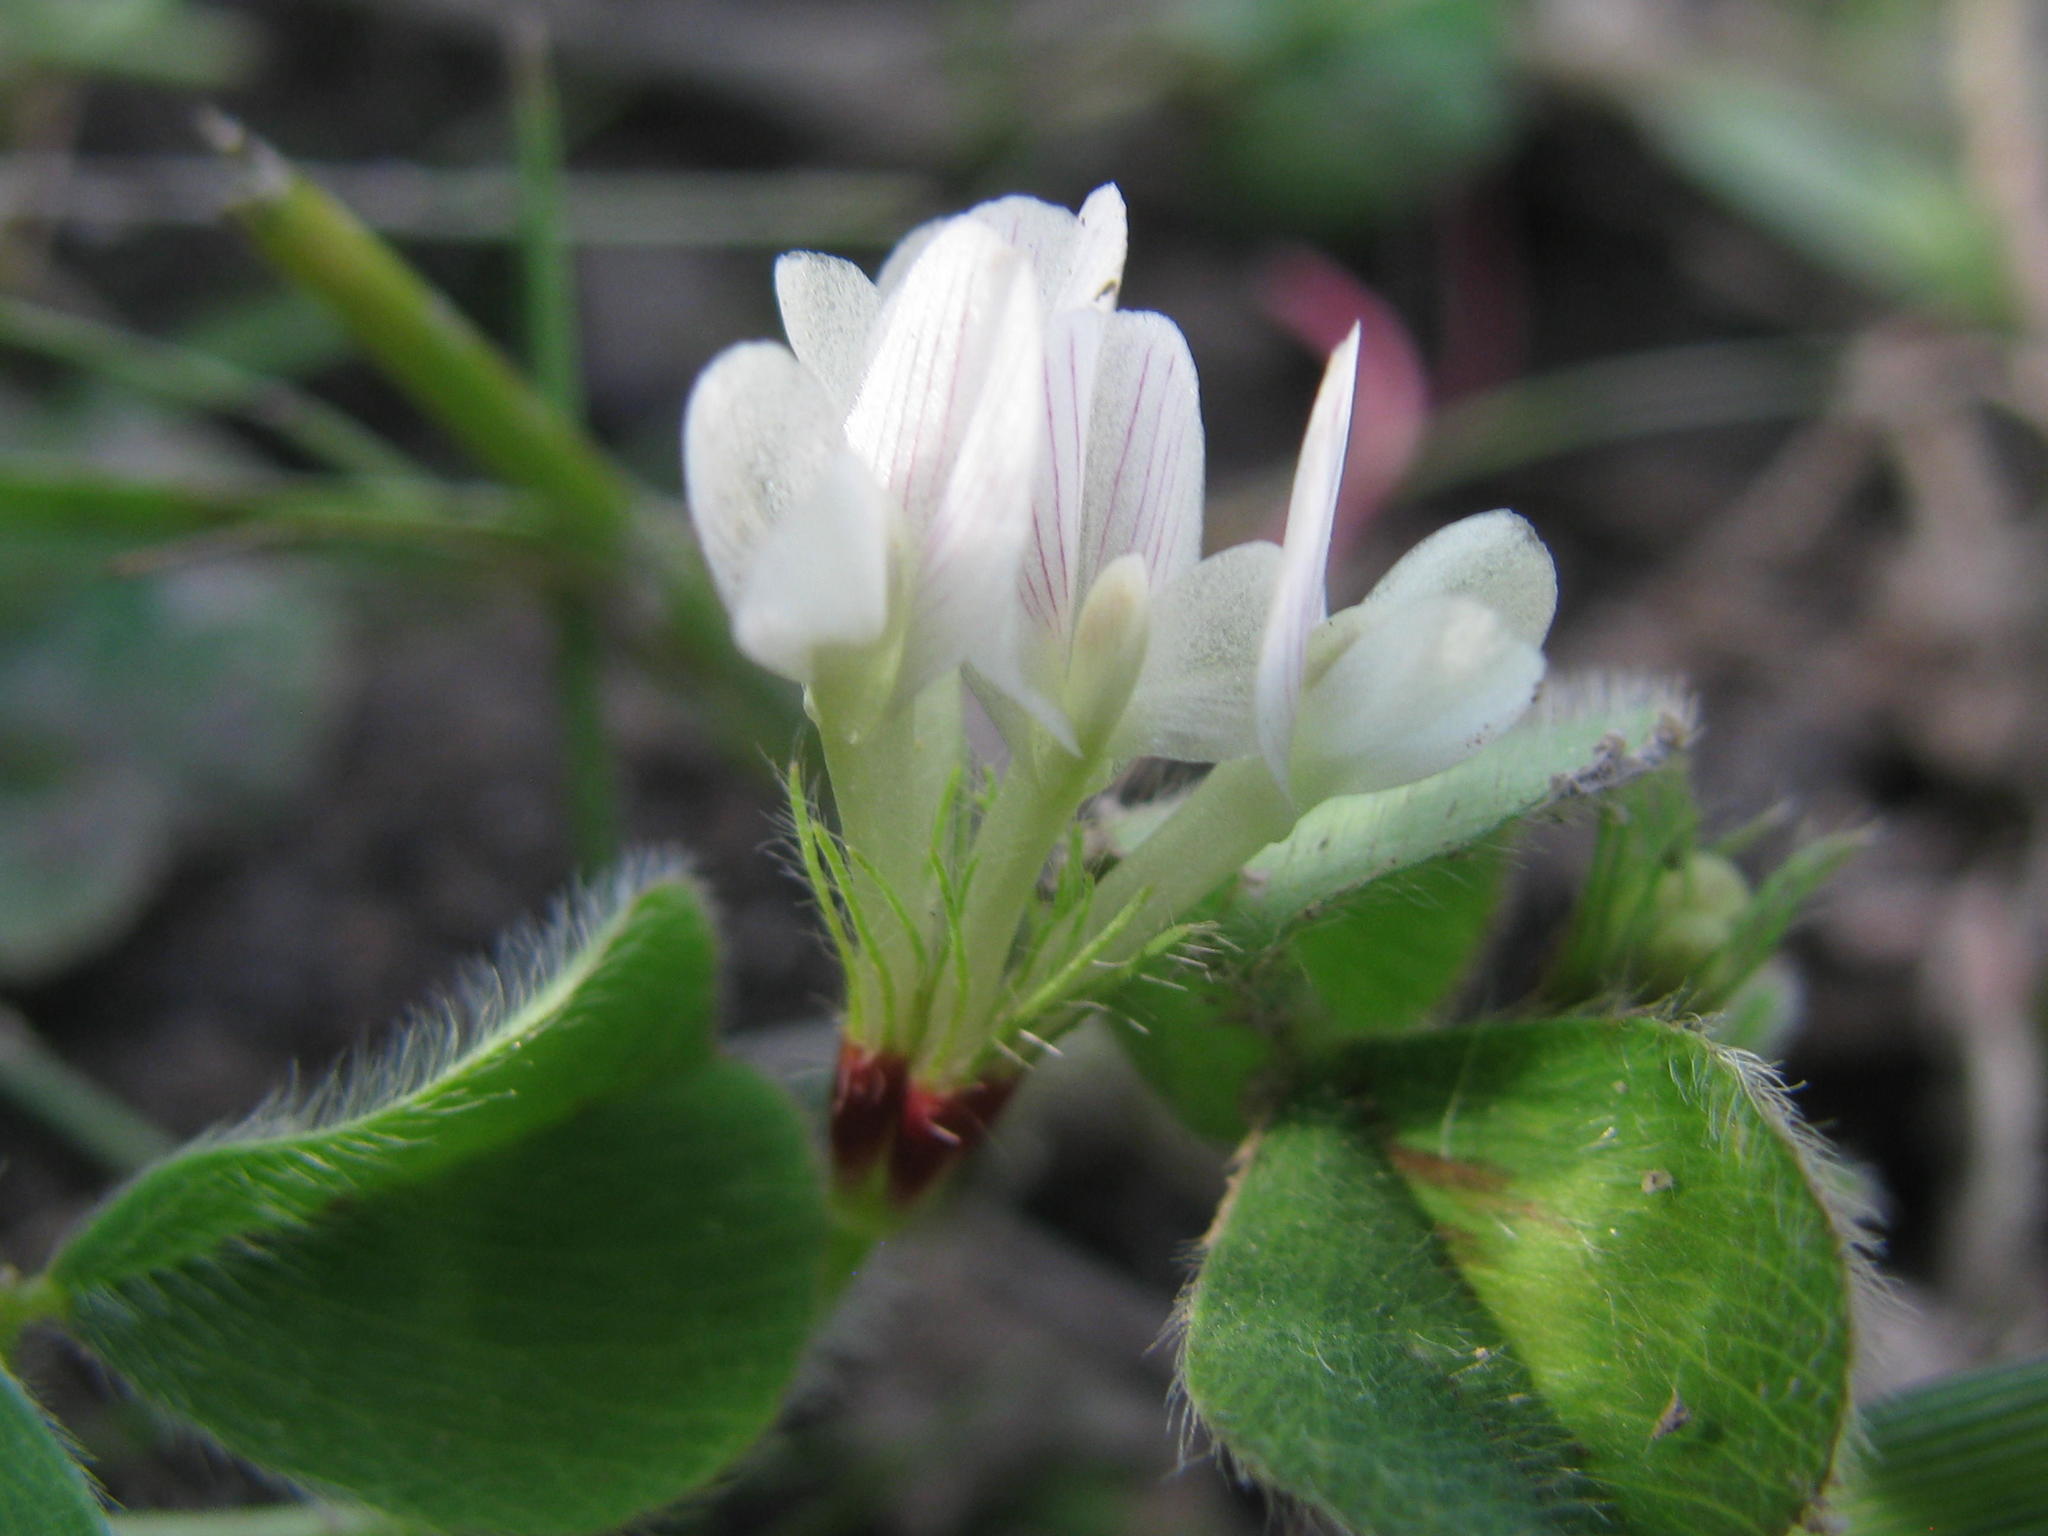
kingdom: Plantae
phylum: Tracheophyta
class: Magnoliopsida
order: Fabales
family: Fabaceae
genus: Trifolium
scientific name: Trifolium subterraneum
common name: Subterranean clover
